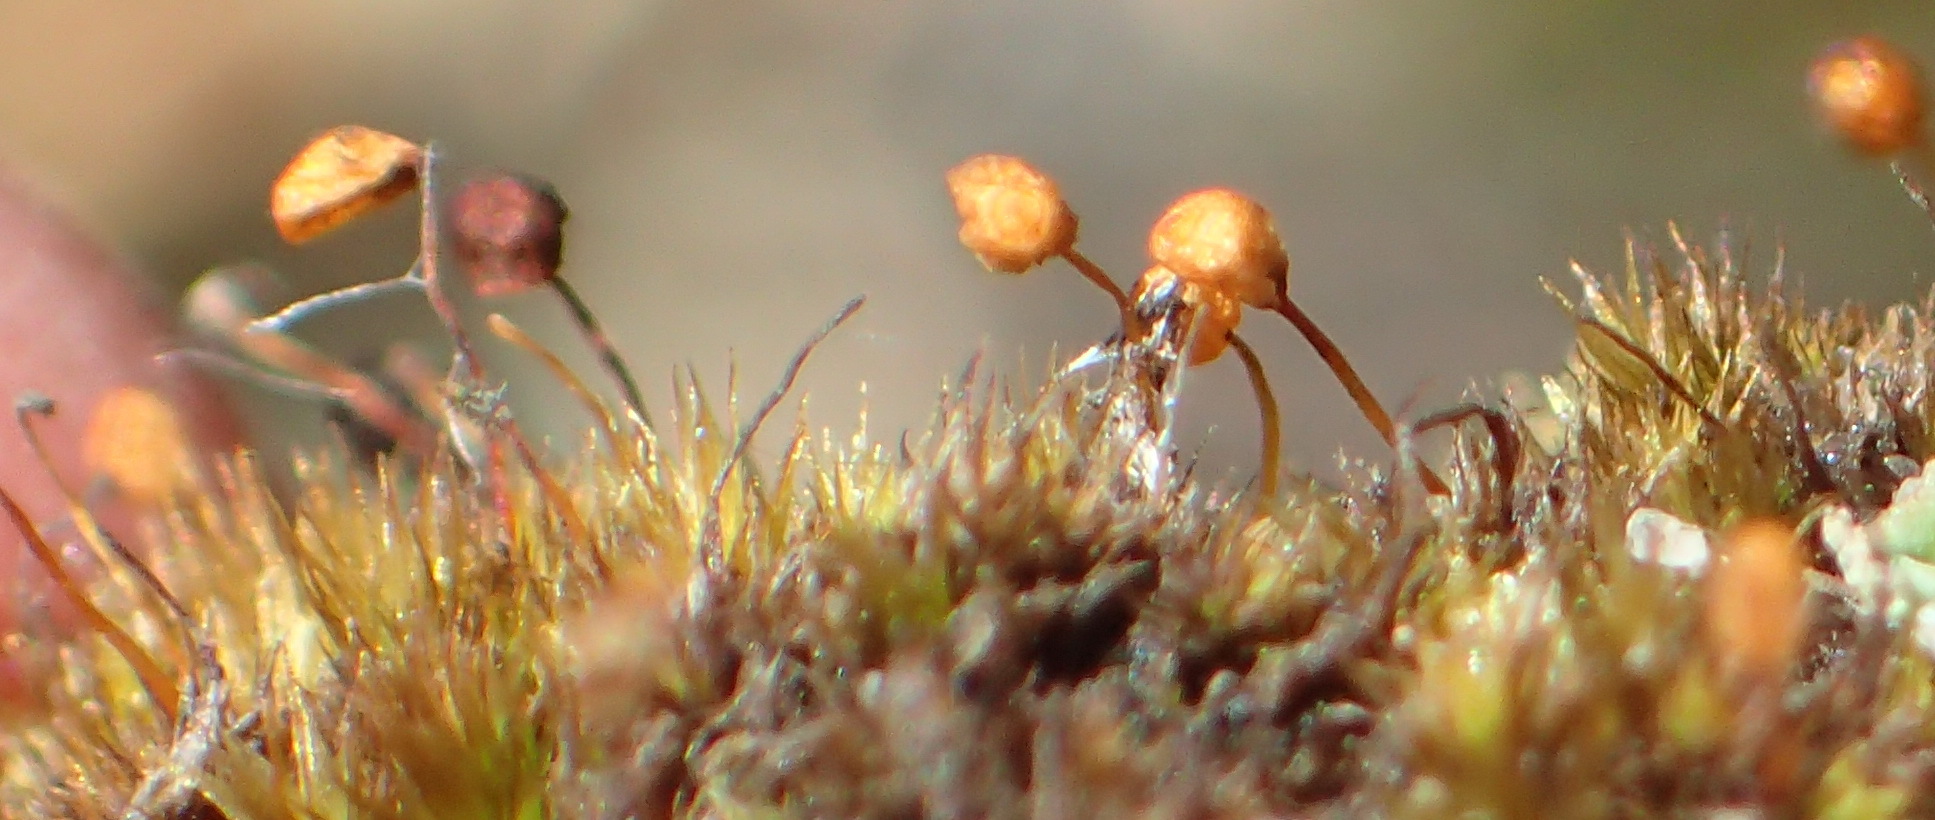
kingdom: Plantae
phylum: Bryophyta
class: Bryopsida
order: Bartramiales
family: Bartramiaceae
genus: Bartramia
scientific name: Bartramia hampeana
